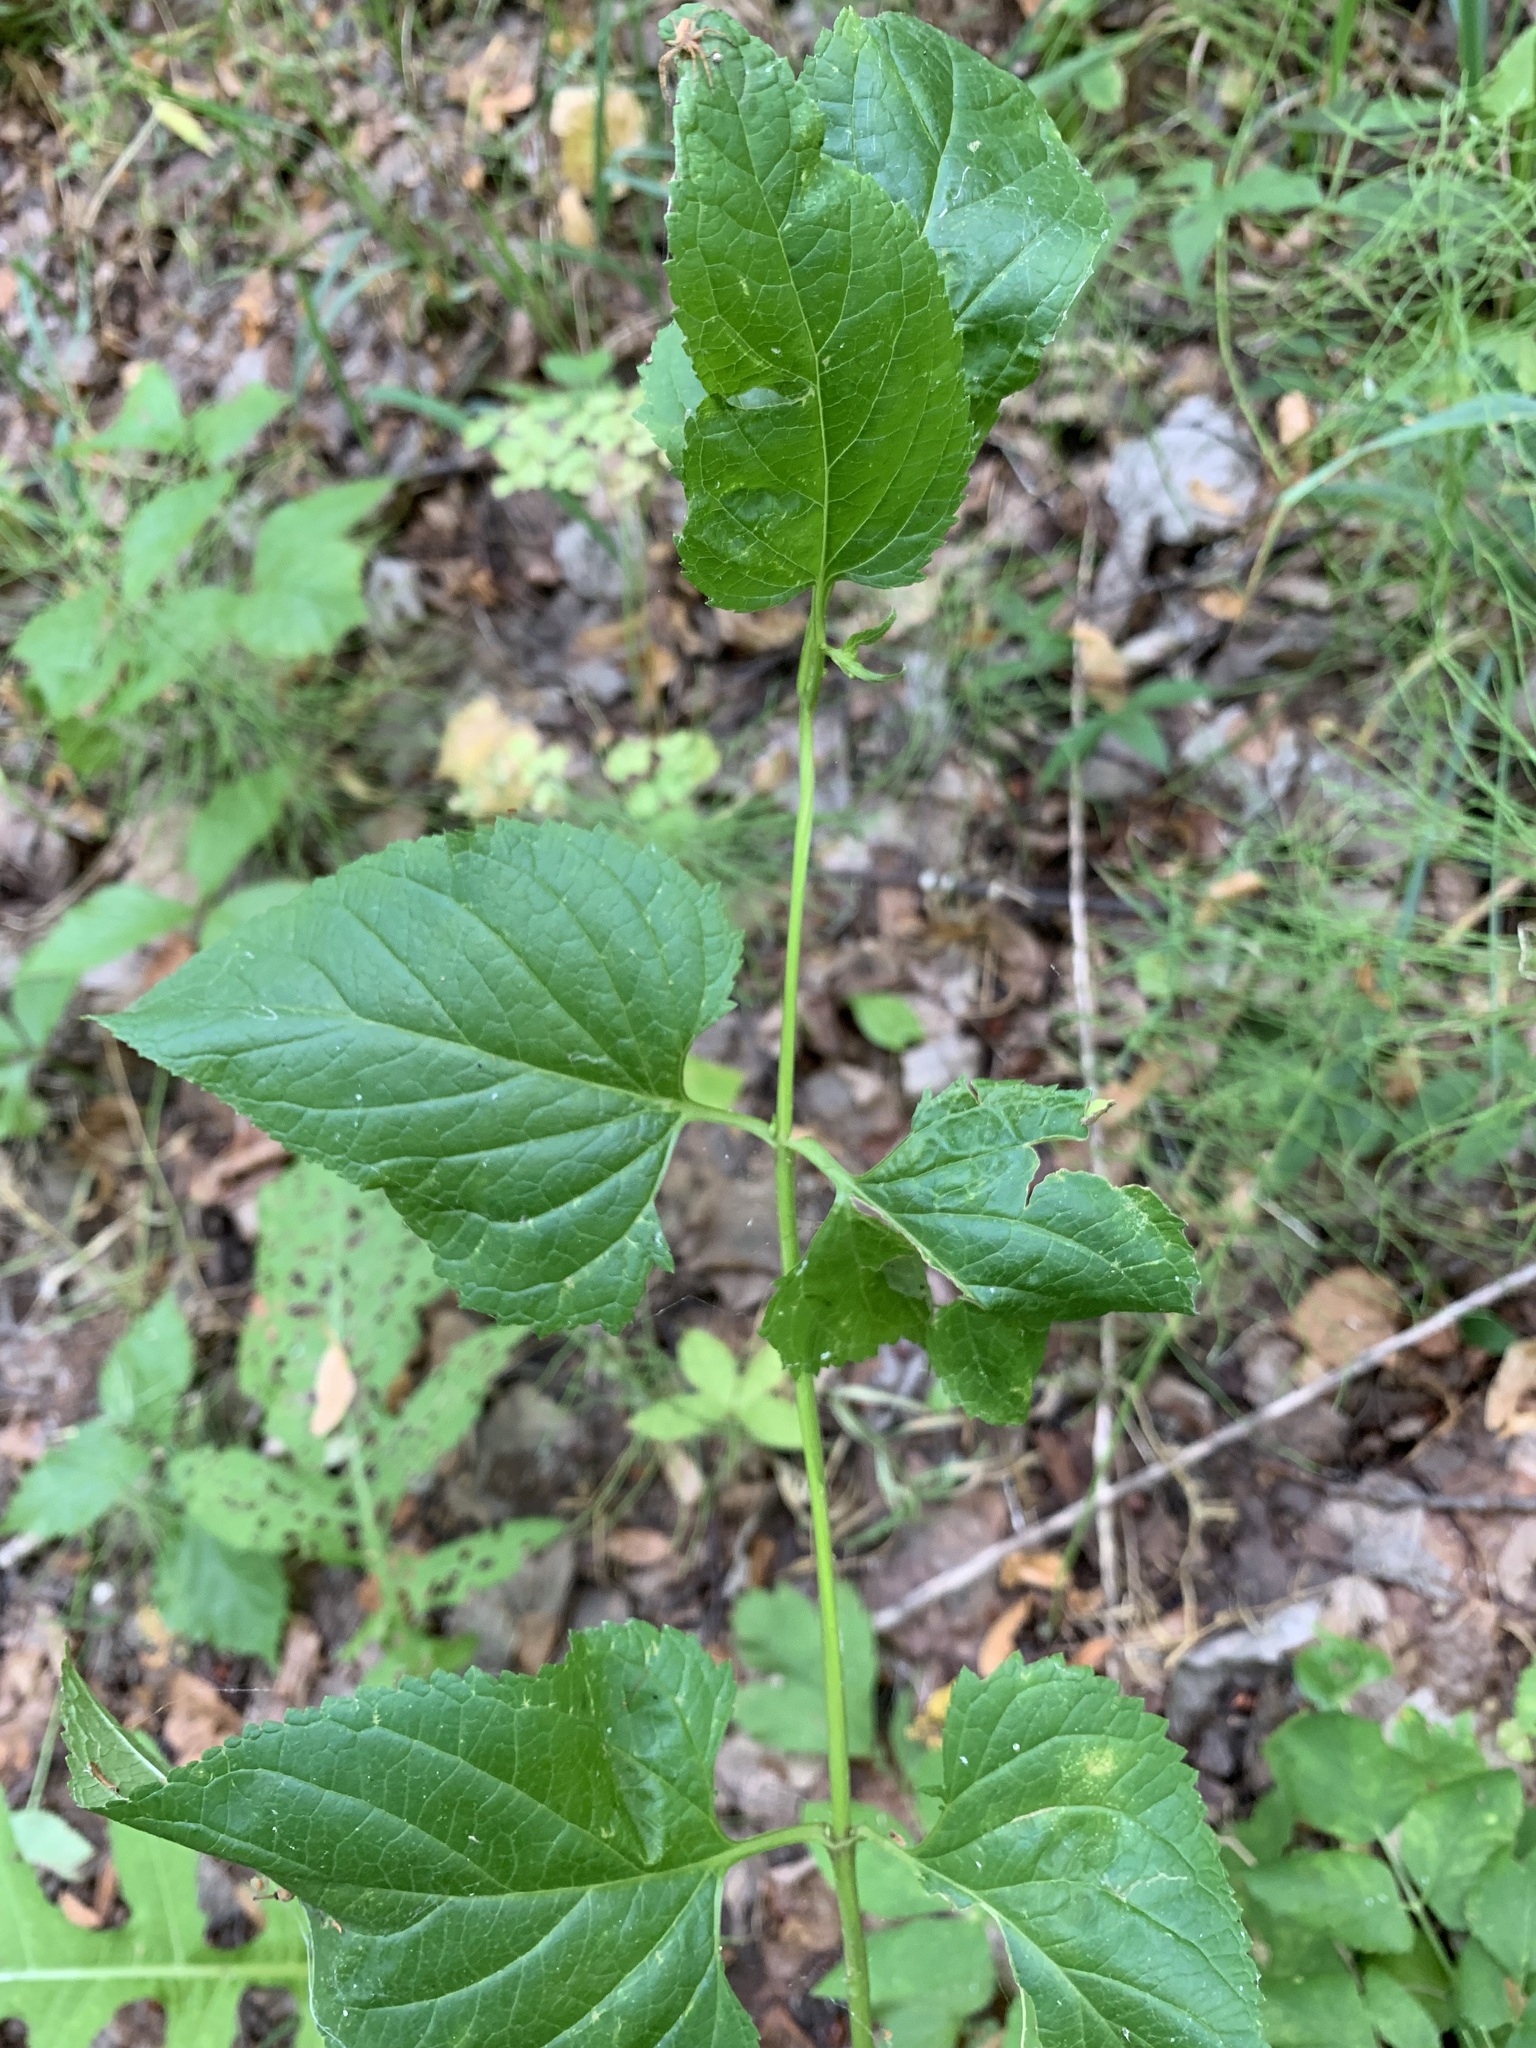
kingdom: Plantae
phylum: Tracheophyta
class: Magnoliopsida
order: Lamiales
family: Scrophulariaceae
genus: Scrophularia
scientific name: Scrophularia nodosa
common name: Common figwort
